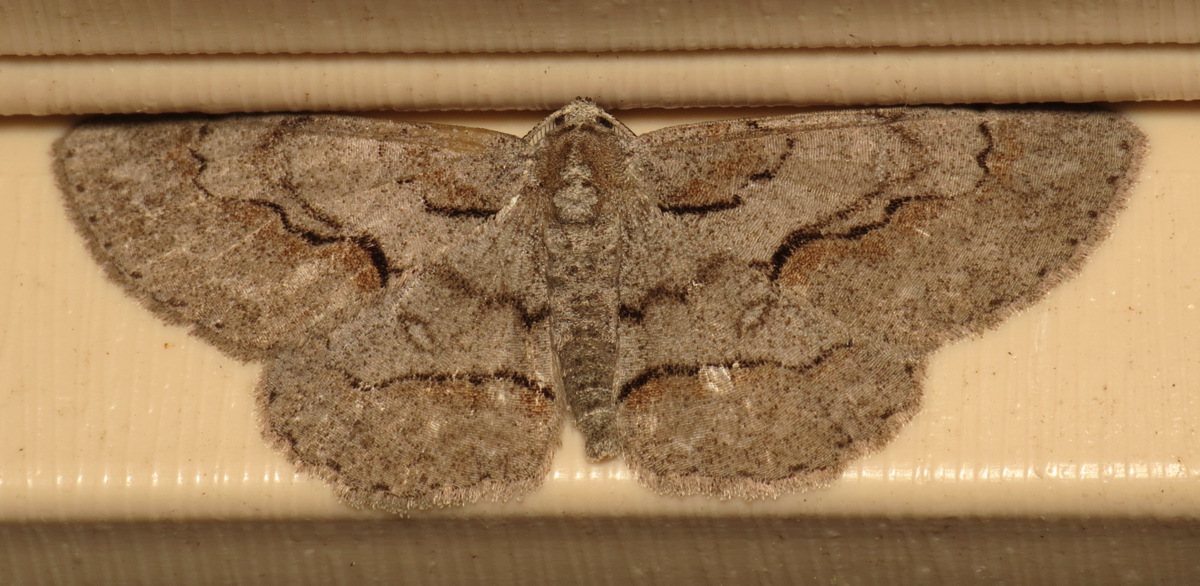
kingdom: Animalia
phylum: Arthropoda
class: Insecta
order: Lepidoptera
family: Geometridae
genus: Iridopsis
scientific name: Iridopsis vellivolata
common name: Large purplish gray
